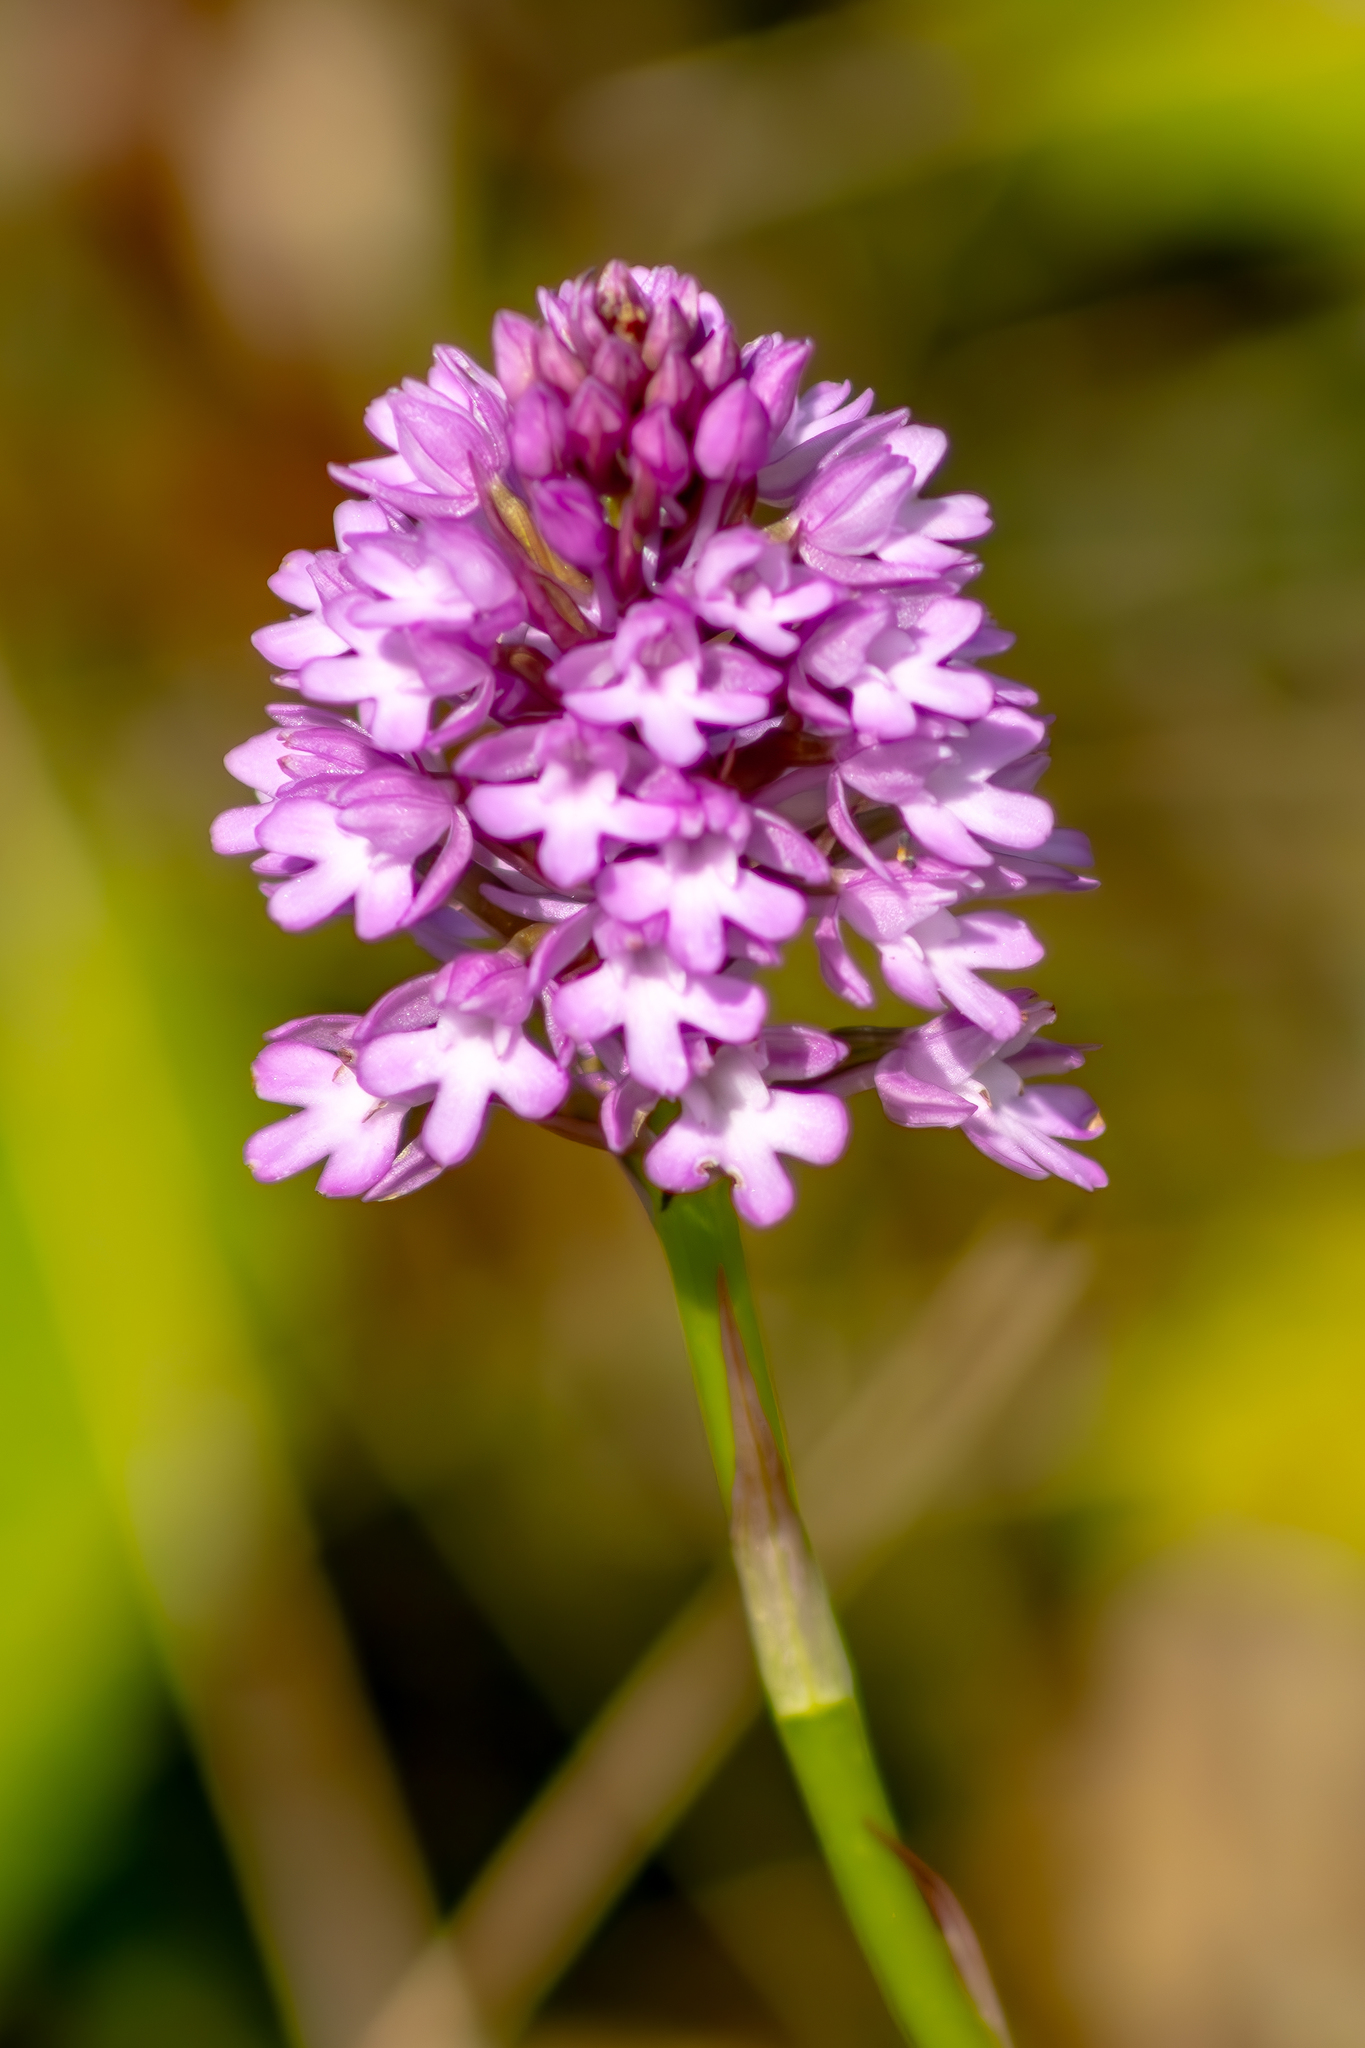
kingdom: Plantae
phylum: Tracheophyta
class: Liliopsida
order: Asparagales
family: Orchidaceae
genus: Anacamptis
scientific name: Anacamptis pyramidalis
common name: Pyramidal orchid
